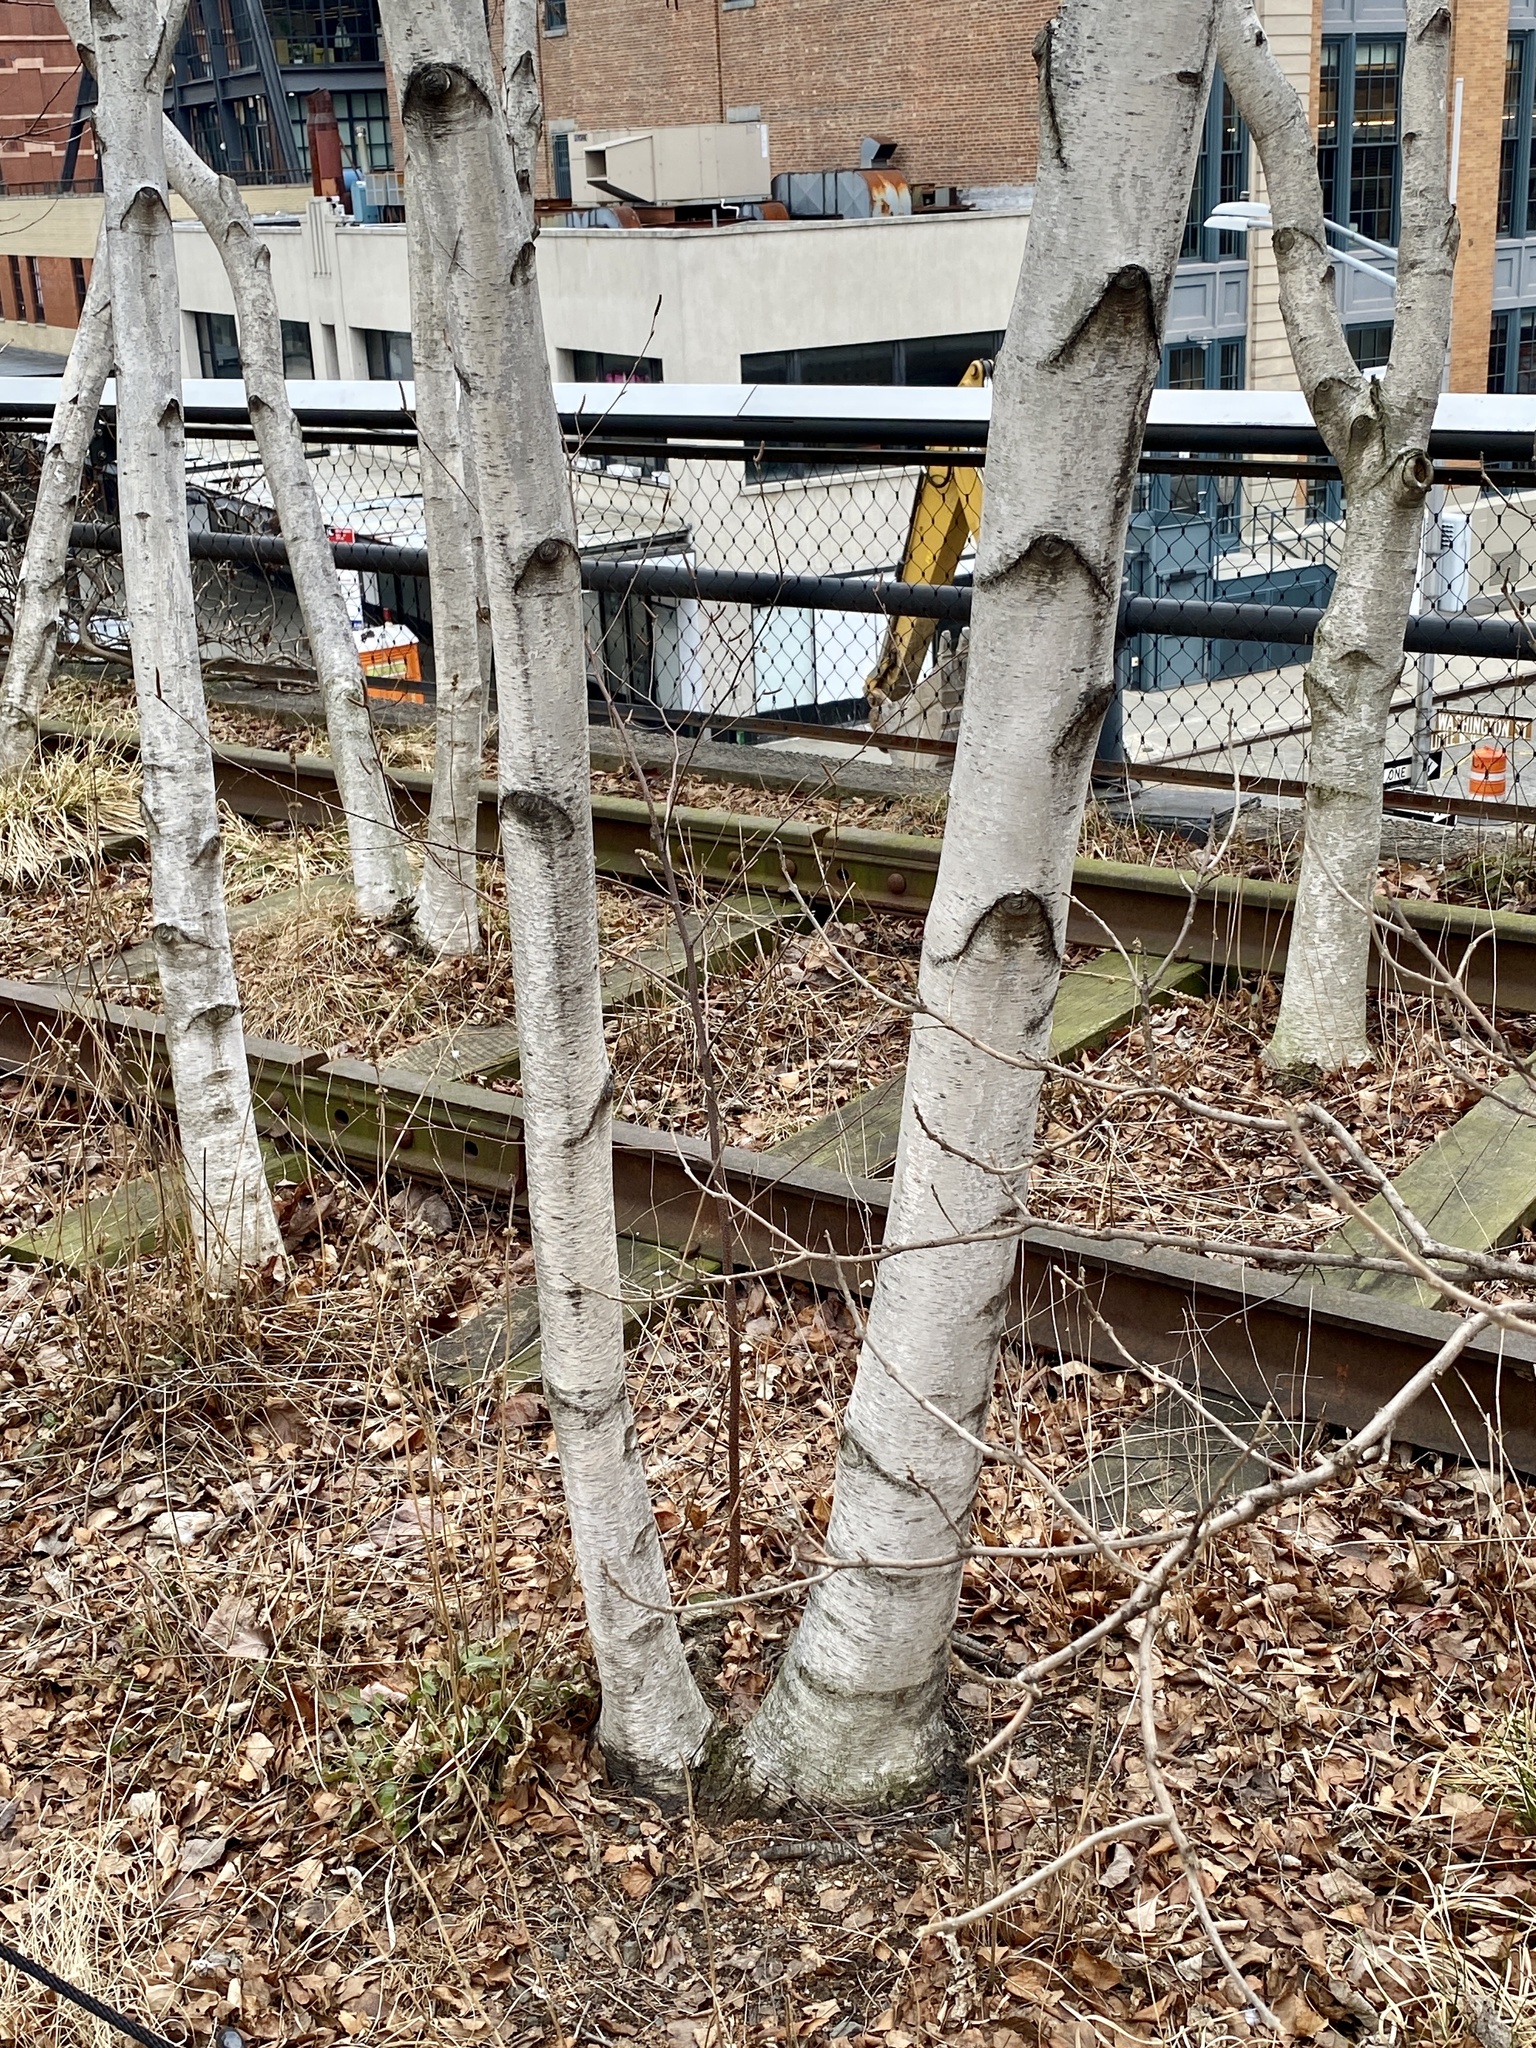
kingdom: Plantae
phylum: Tracheophyta
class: Magnoliopsida
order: Fagales
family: Betulaceae
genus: Betula
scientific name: Betula populifolia
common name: Fire birch
